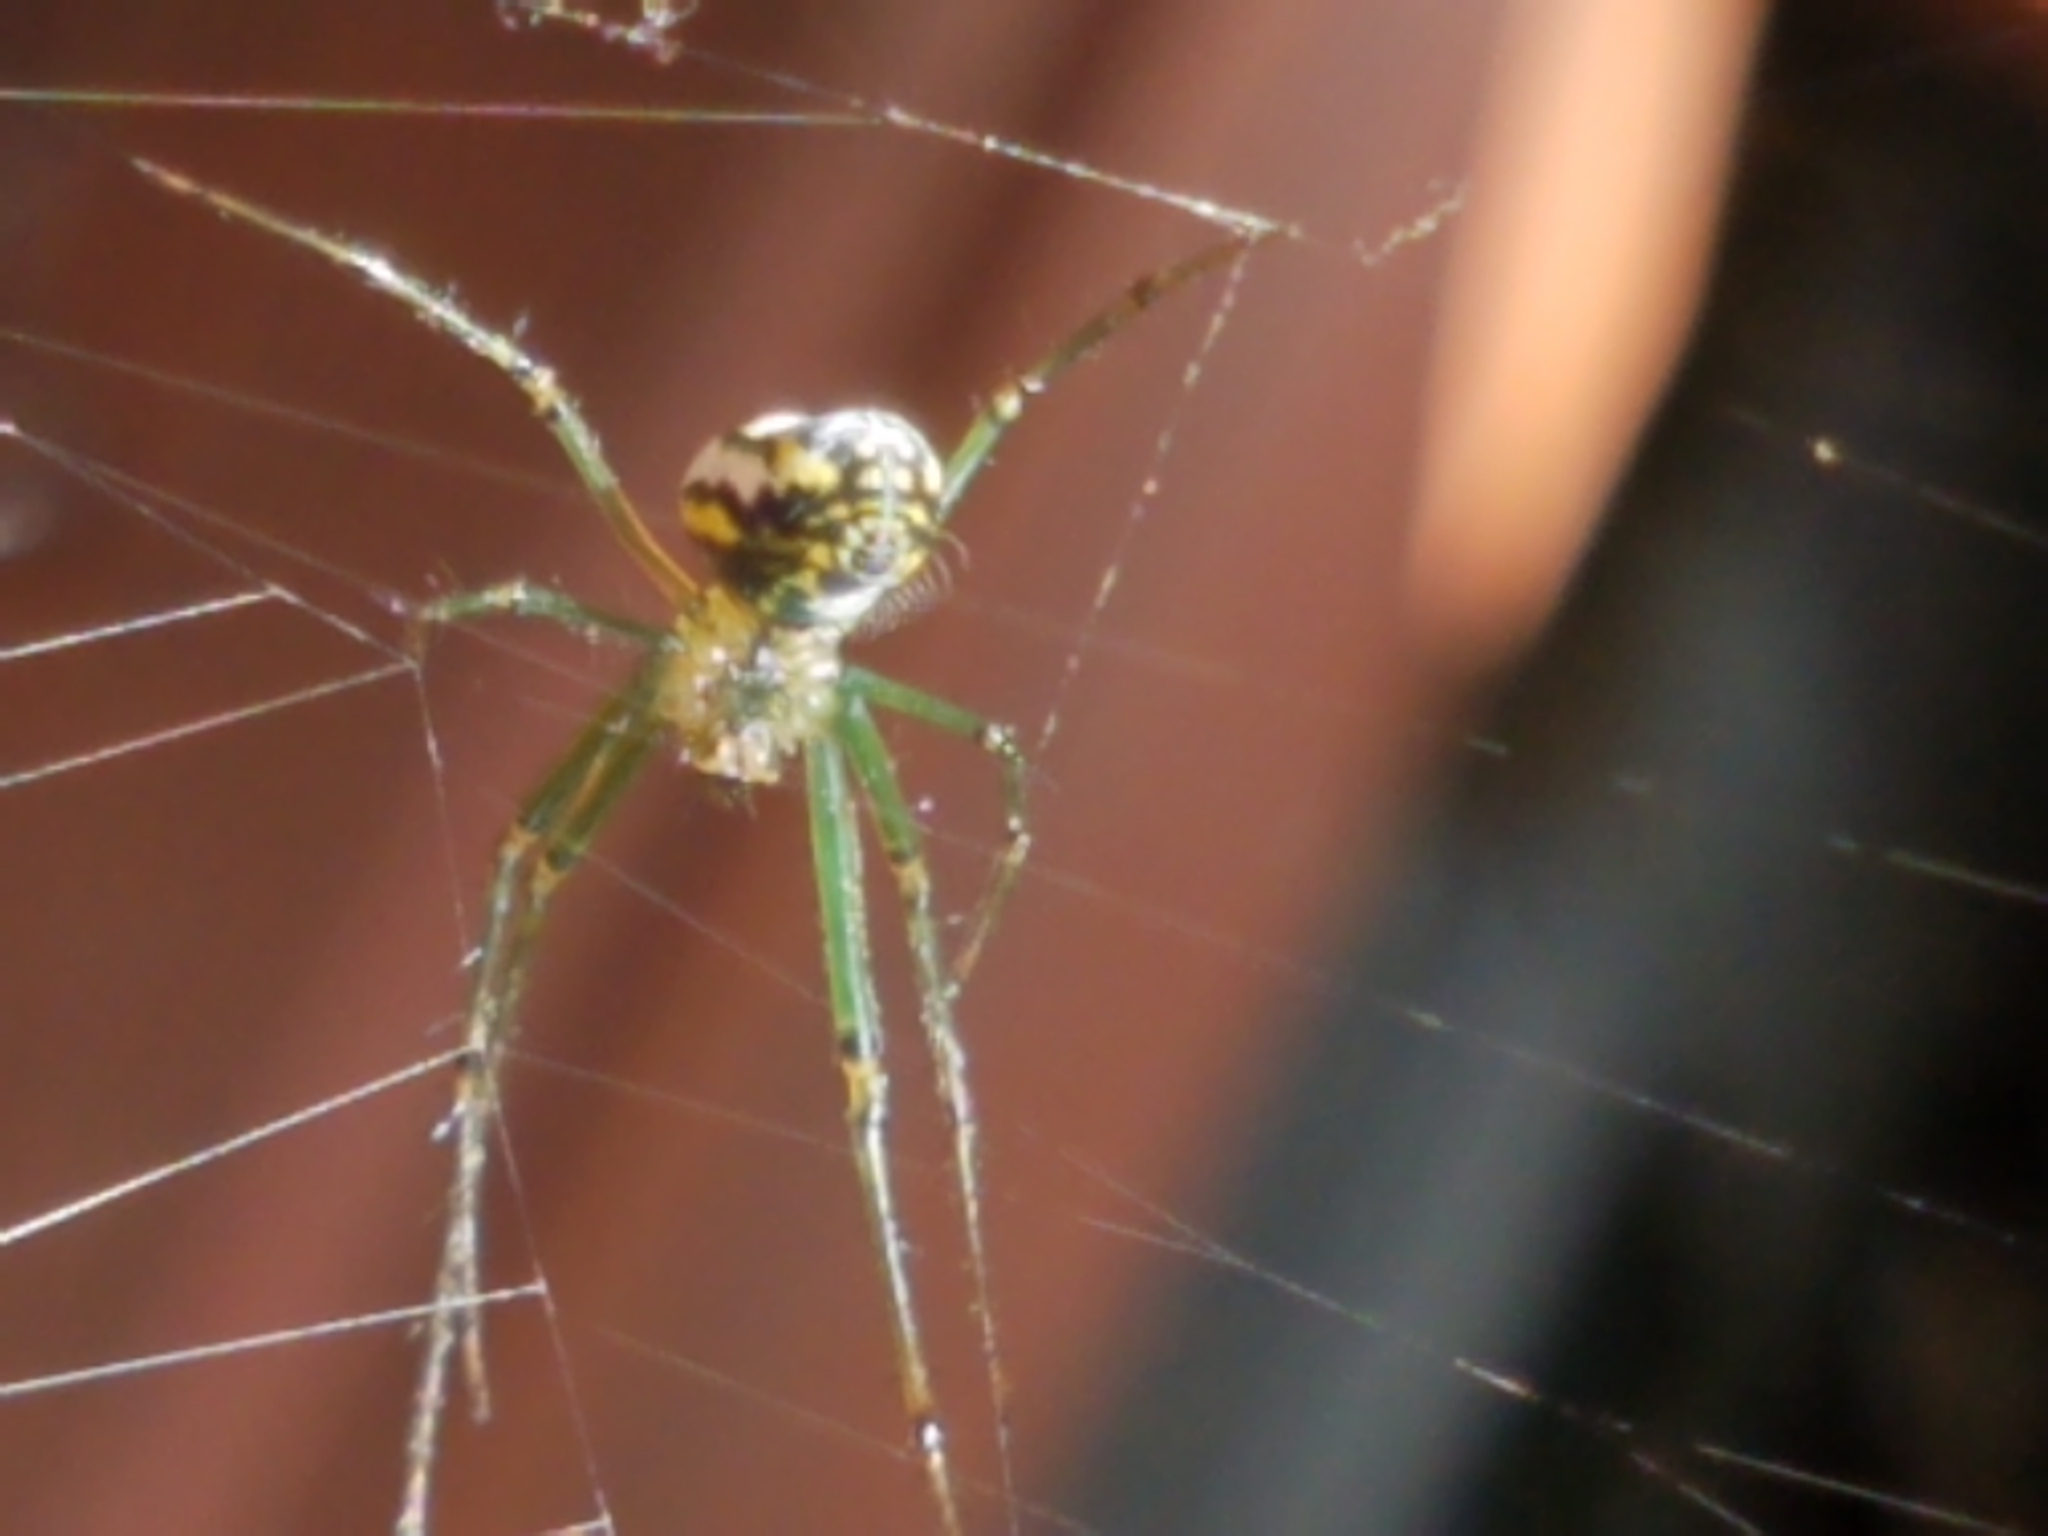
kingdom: Animalia
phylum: Arthropoda
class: Arachnida
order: Araneae
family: Tetragnathidae
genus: Leucauge
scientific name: Leucauge venusta
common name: Longjawed orb weavers
